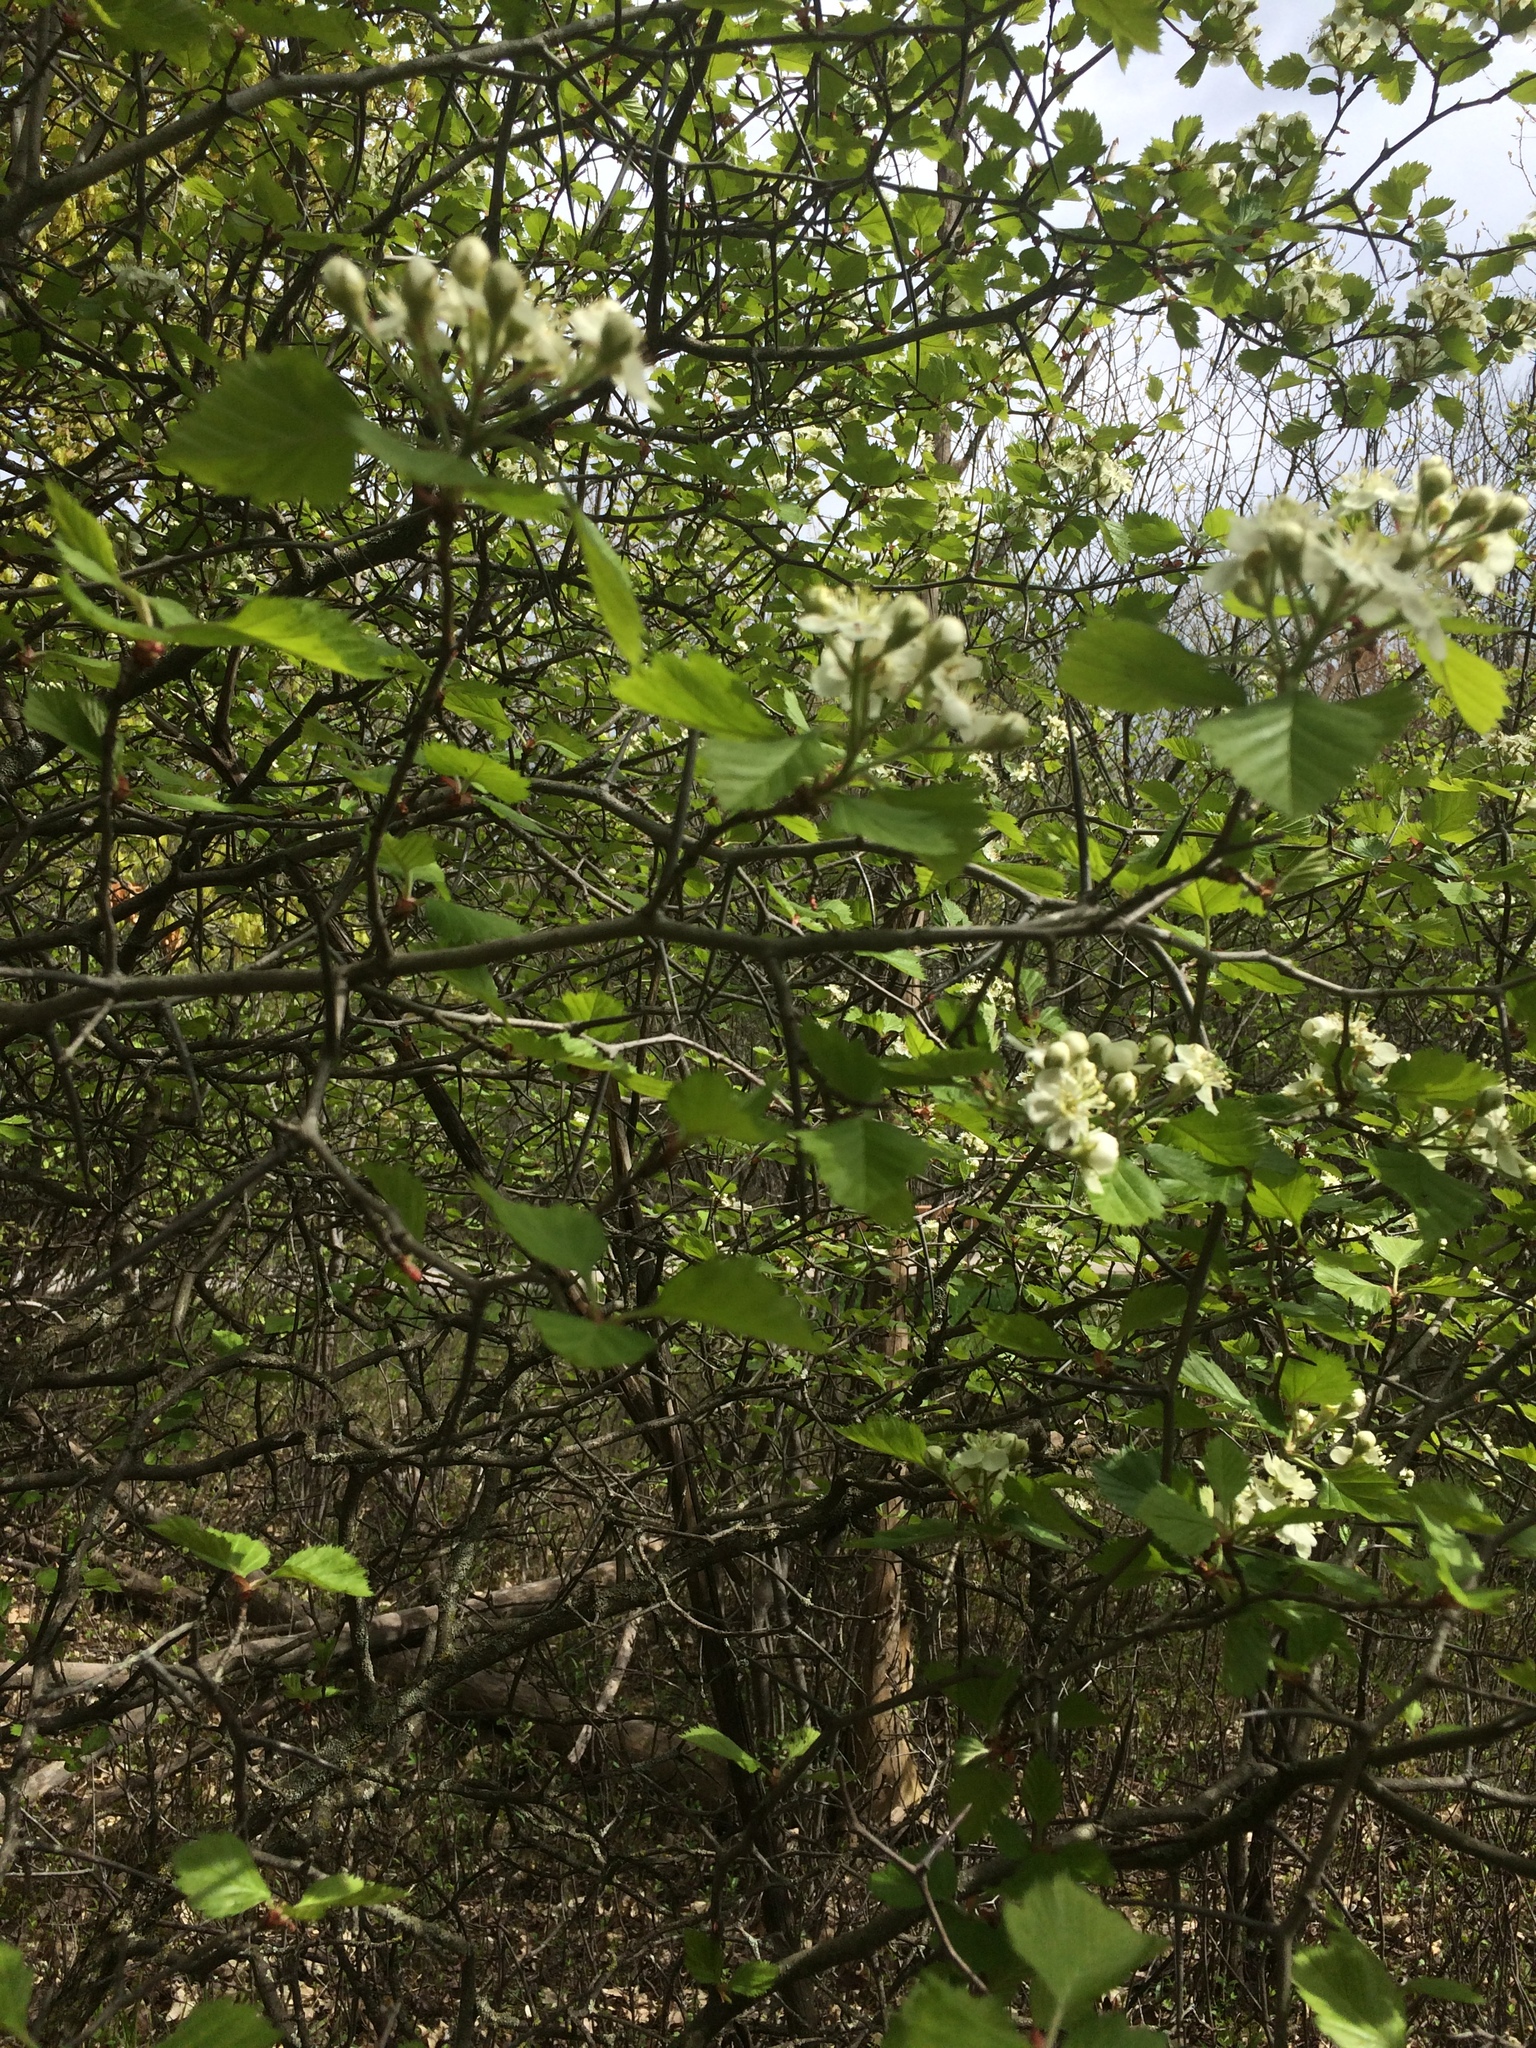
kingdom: Plantae
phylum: Tracheophyta
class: Magnoliopsida
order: Rosales
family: Rosaceae
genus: Crataegus
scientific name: Crataegus submollis
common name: Hairy cockspurthorn
